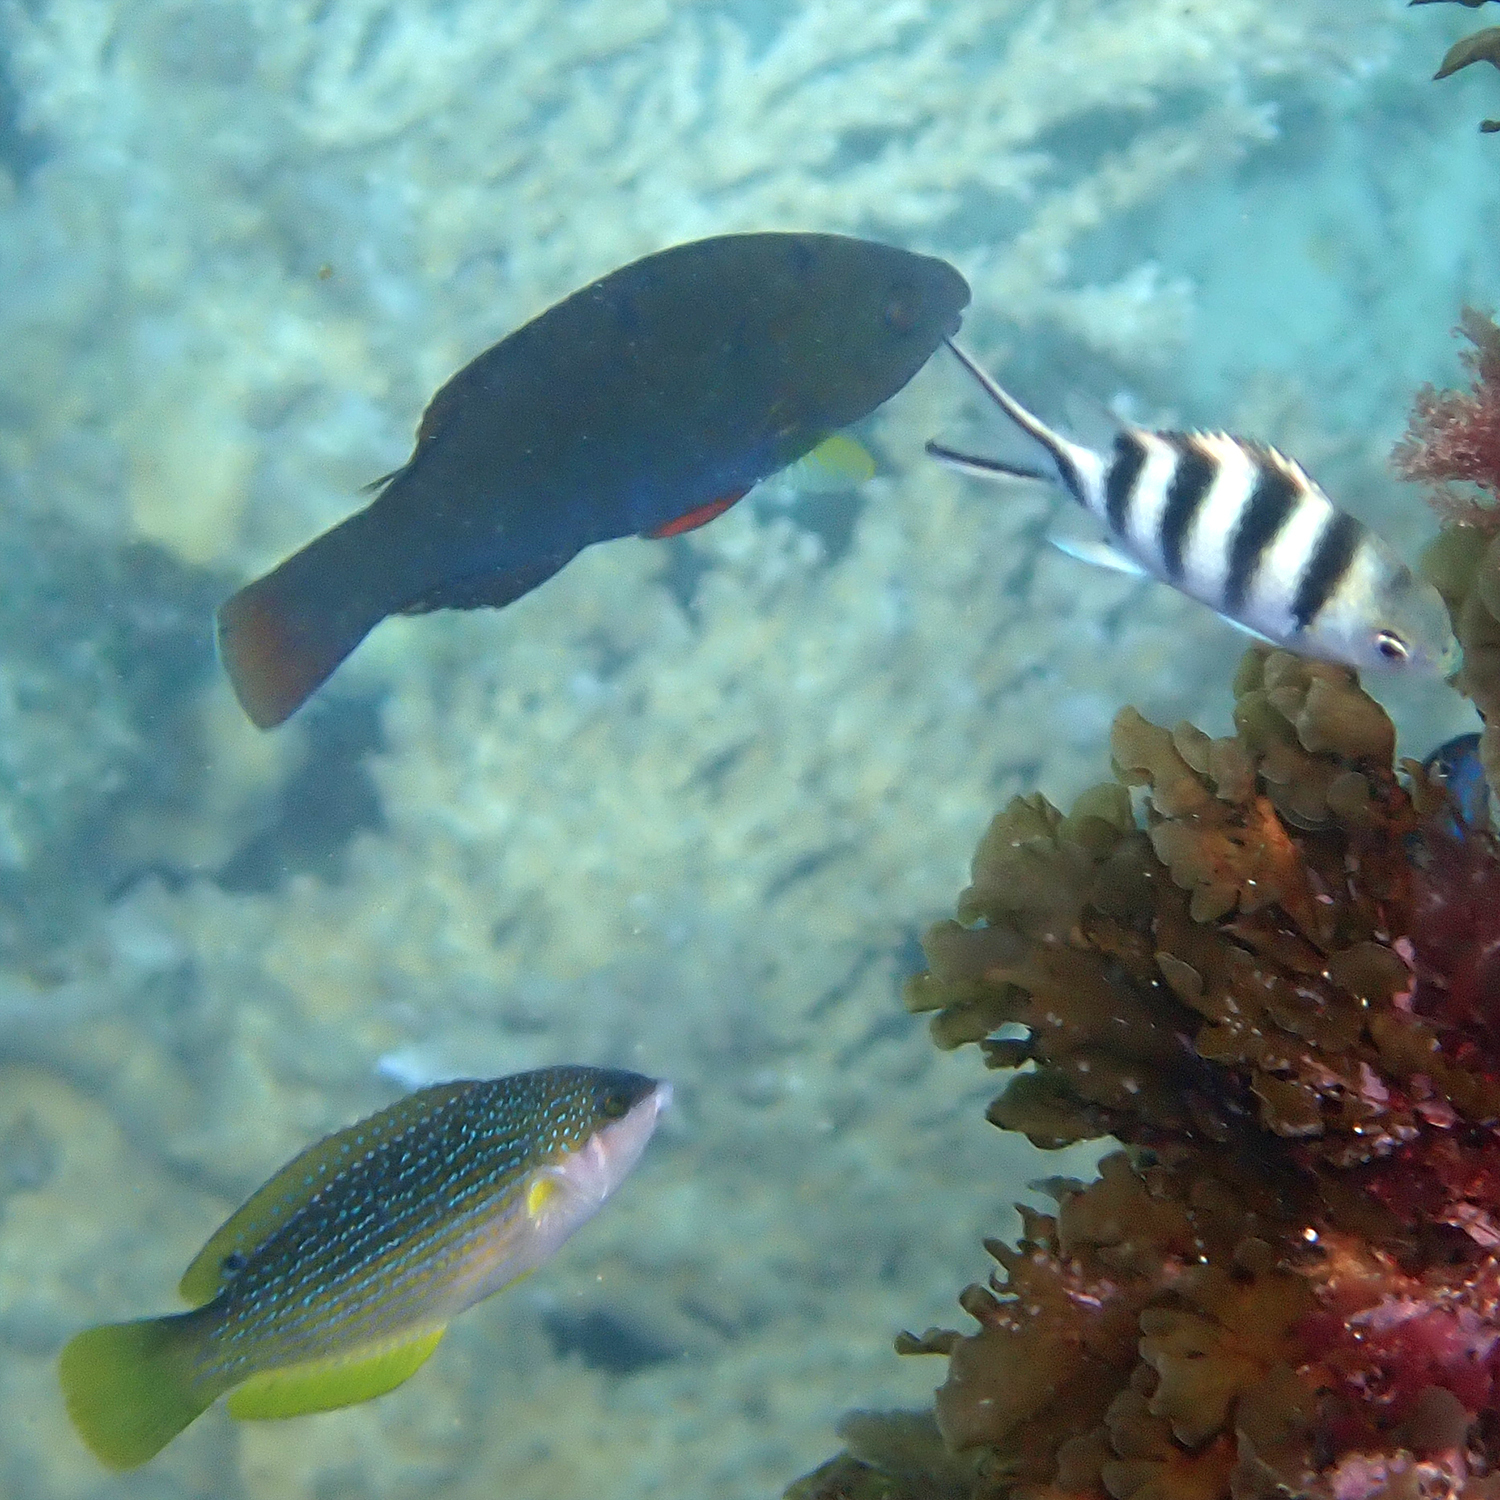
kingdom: Animalia
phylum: Chordata
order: Perciformes
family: Labridae
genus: Anampses
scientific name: Anampses elegans
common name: Elegant wrasse
